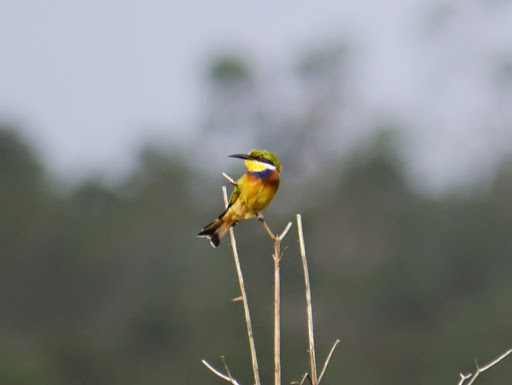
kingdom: Animalia
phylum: Chordata
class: Aves
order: Coraciiformes
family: Meropidae
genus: Merops
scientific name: Merops variegatus
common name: Blue-breasted bee-eater
